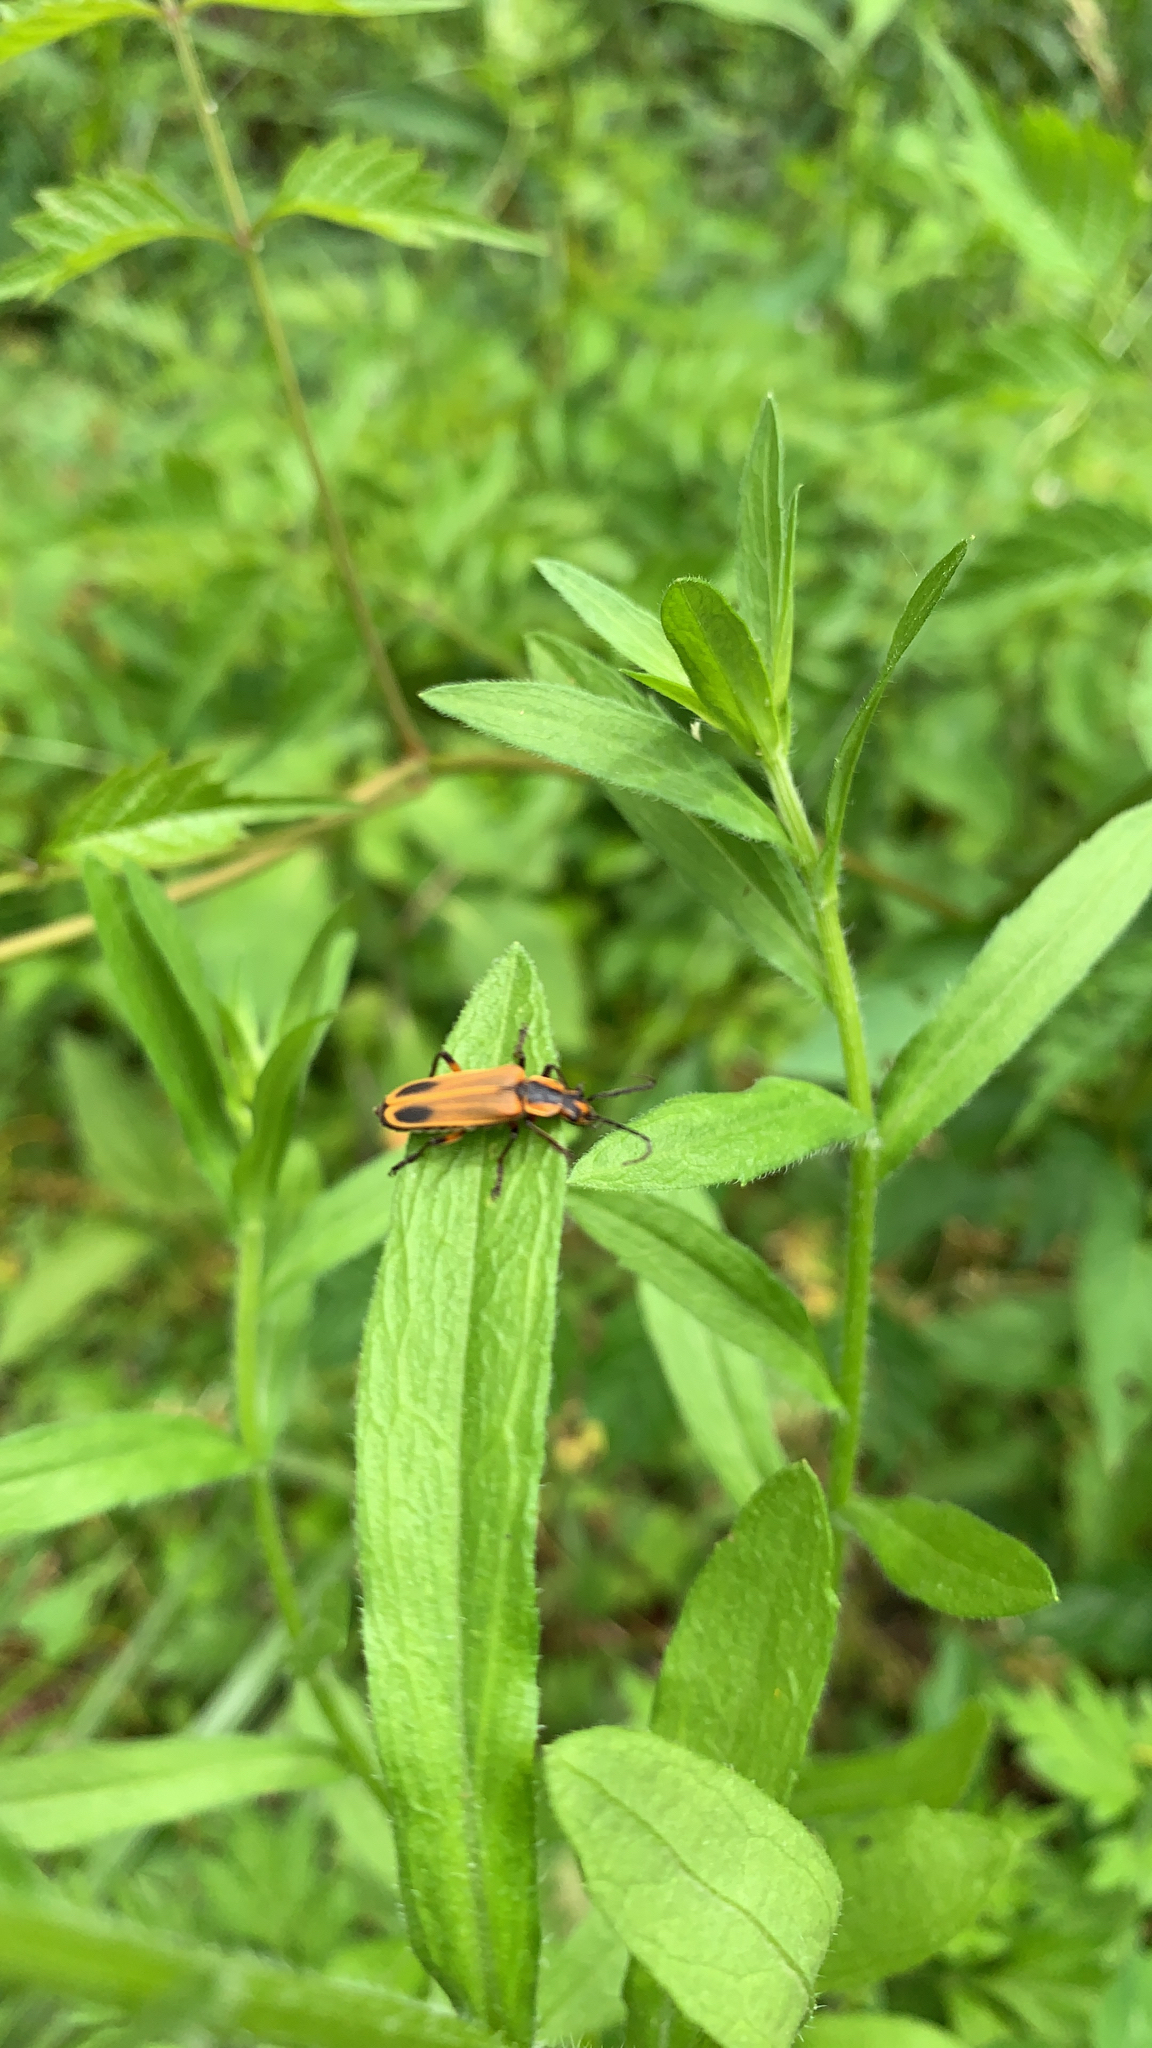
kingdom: Animalia
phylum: Arthropoda
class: Insecta
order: Coleoptera
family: Cantharidae
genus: Chauliognathus
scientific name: Chauliognathus marginatus
